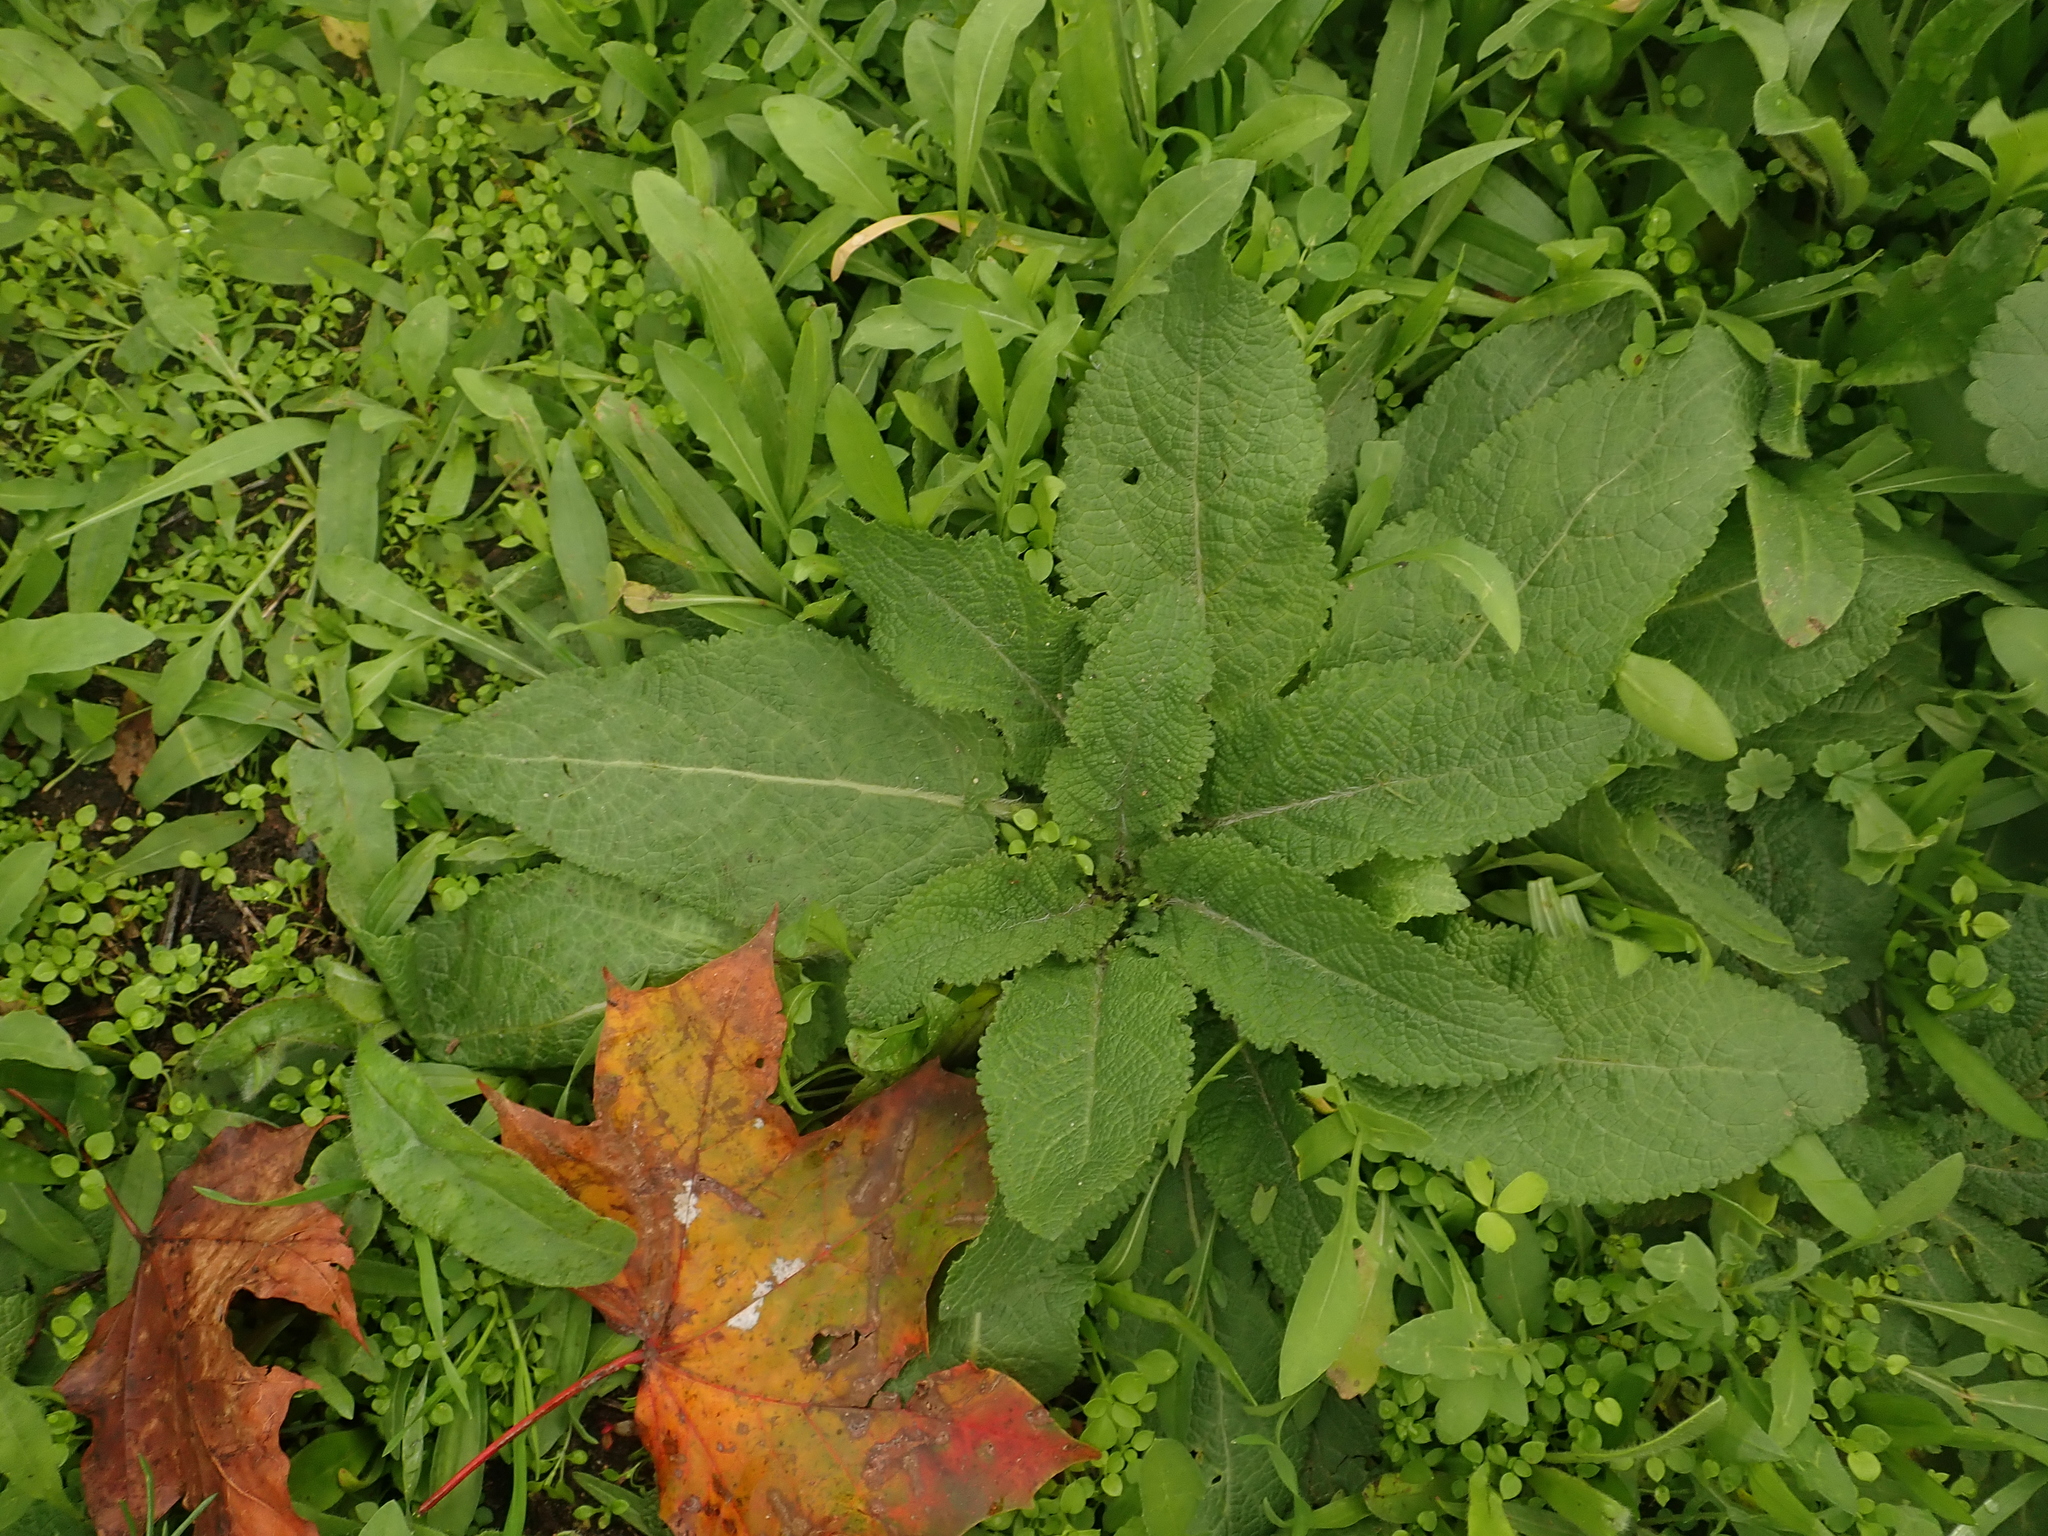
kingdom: Plantae
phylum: Tracheophyta
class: Magnoliopsida
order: Lamiales
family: Lamiaceae
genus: Salvia
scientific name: Salvia pratensis
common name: Meadow sage
